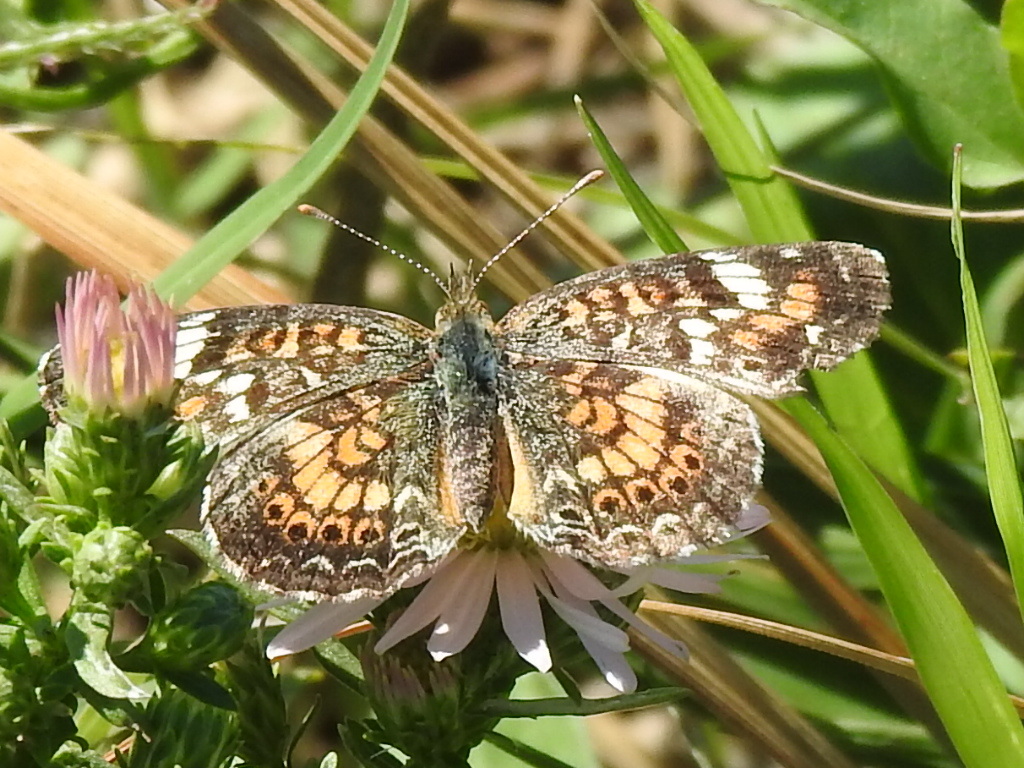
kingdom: Animalia
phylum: Arthropoda
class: Insecta
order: Lepidoptera
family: Nymphalidae
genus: Phyciodes
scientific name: Phyciodes phaon
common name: Phaon crescent
